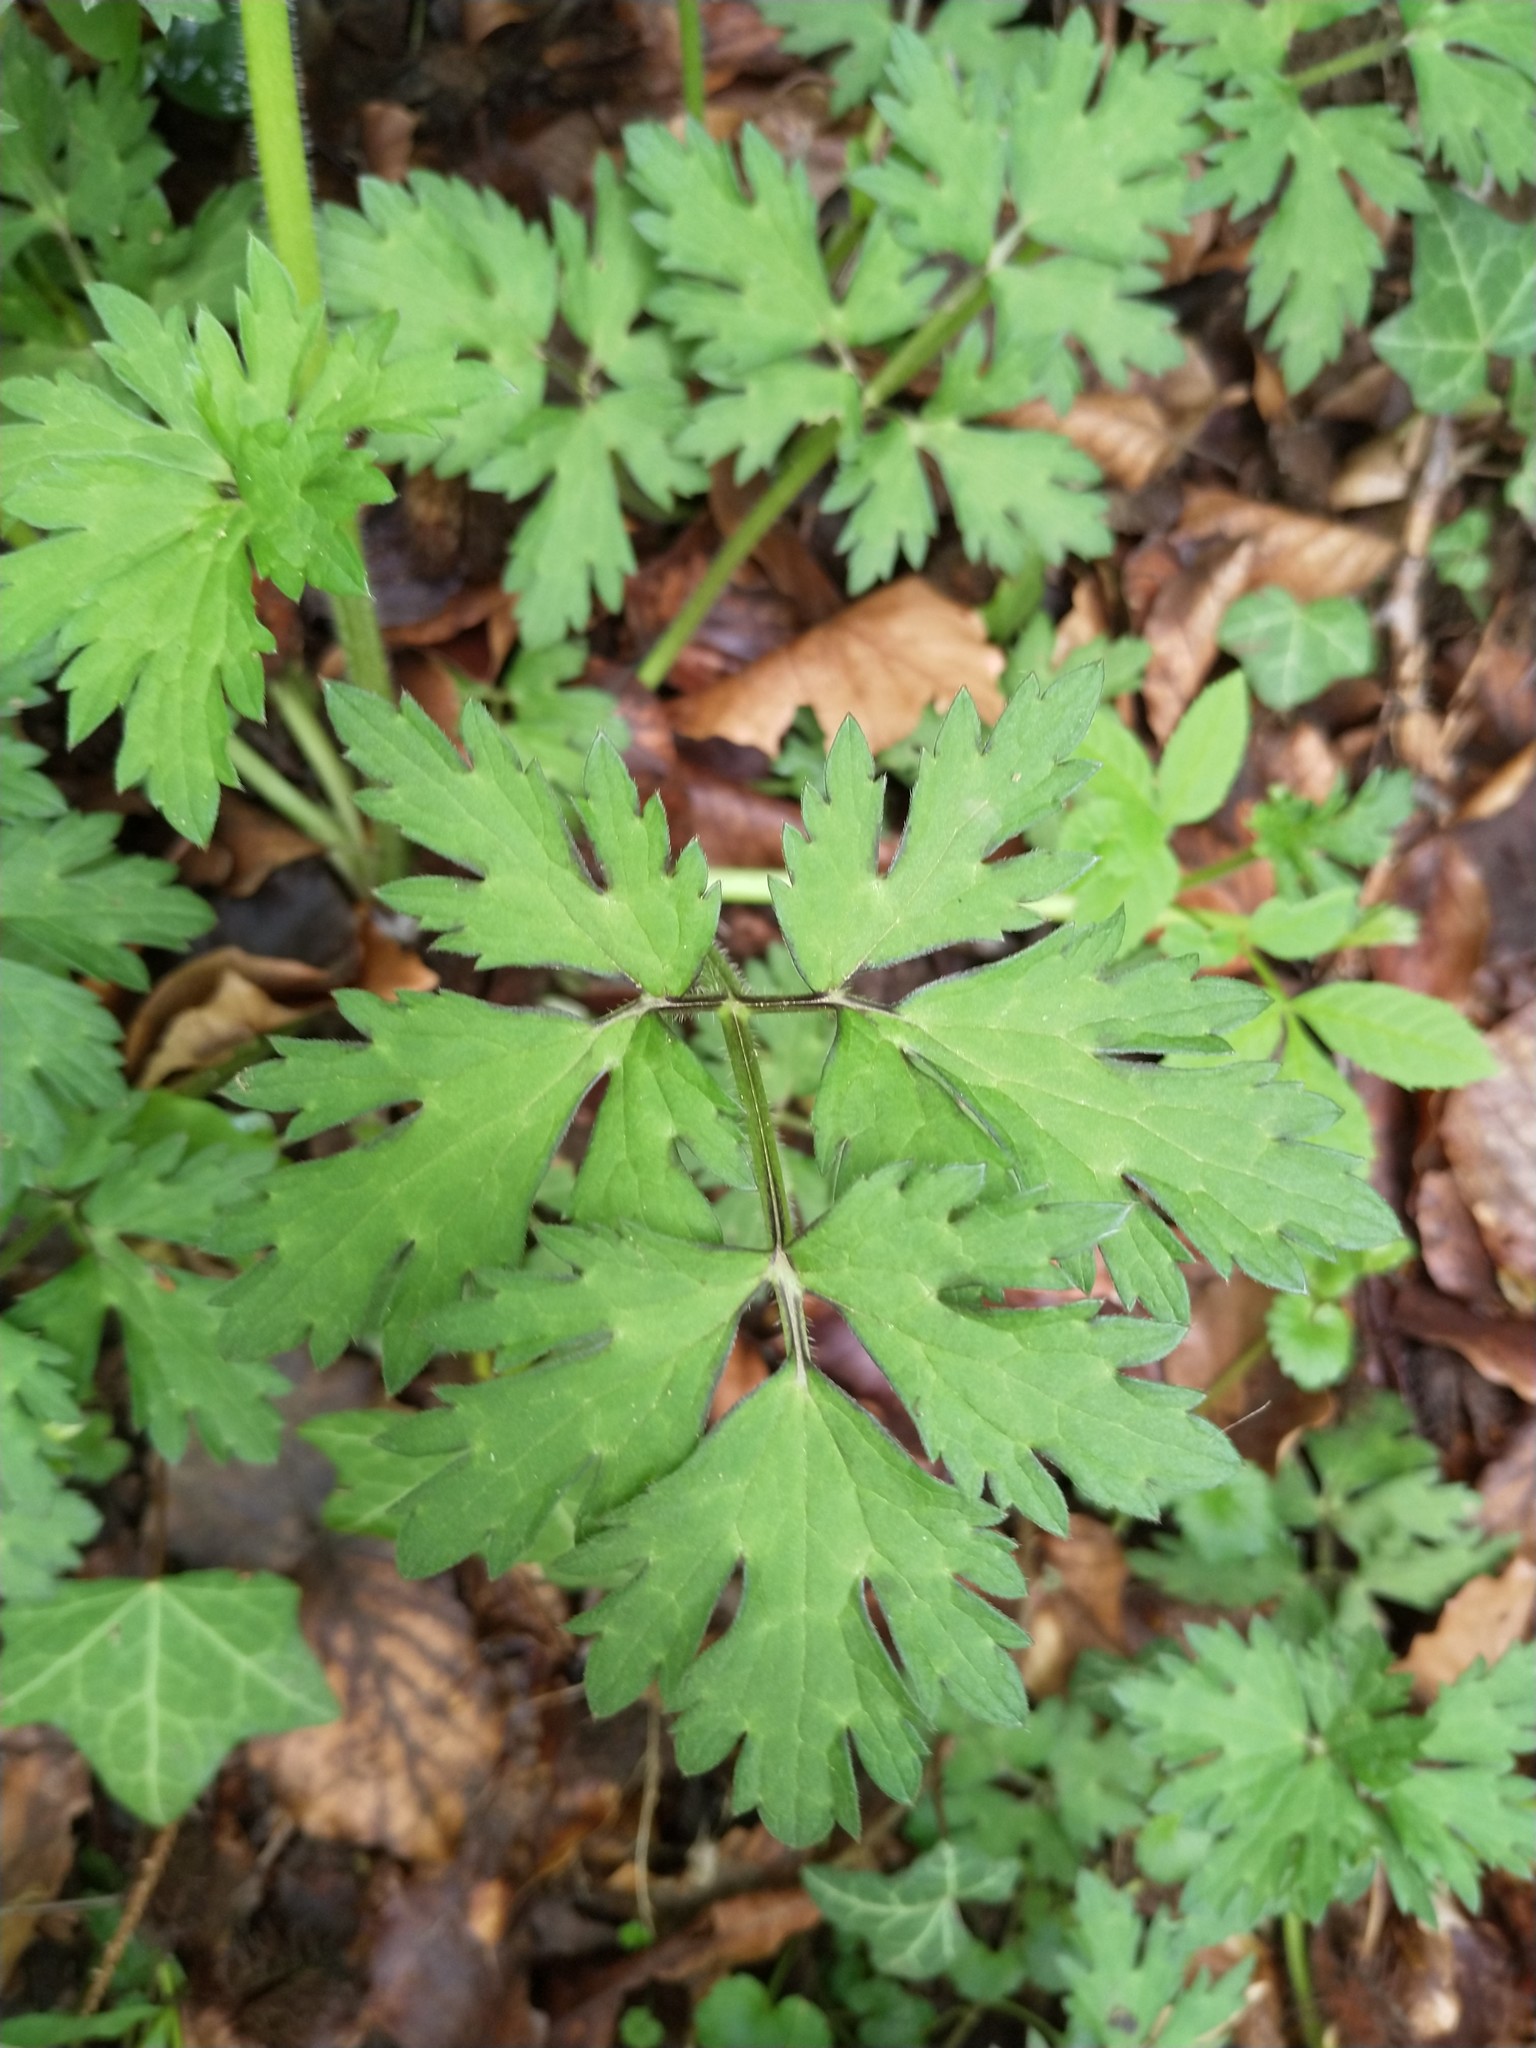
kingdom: Plantae
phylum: Tracheophyta
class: Magnoliopsida
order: Ranunculales
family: Ranunculaceae
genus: Ranunculus
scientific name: Ranunculus repens
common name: Creeping buttercup
